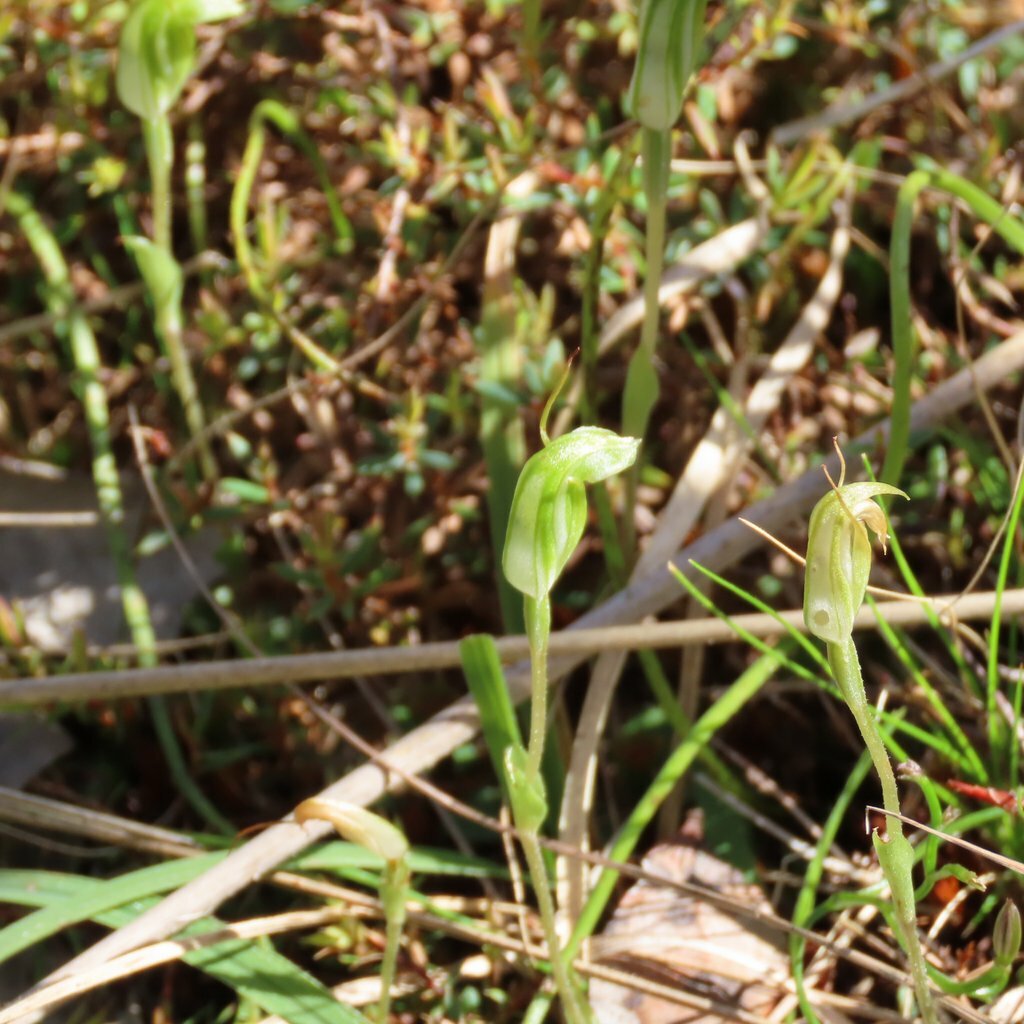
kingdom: Plantae
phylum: Tracheophyta
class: Liliopsida
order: Asparagales
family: Orchidaceae
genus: Pterostylis
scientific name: Pterostylis nana
